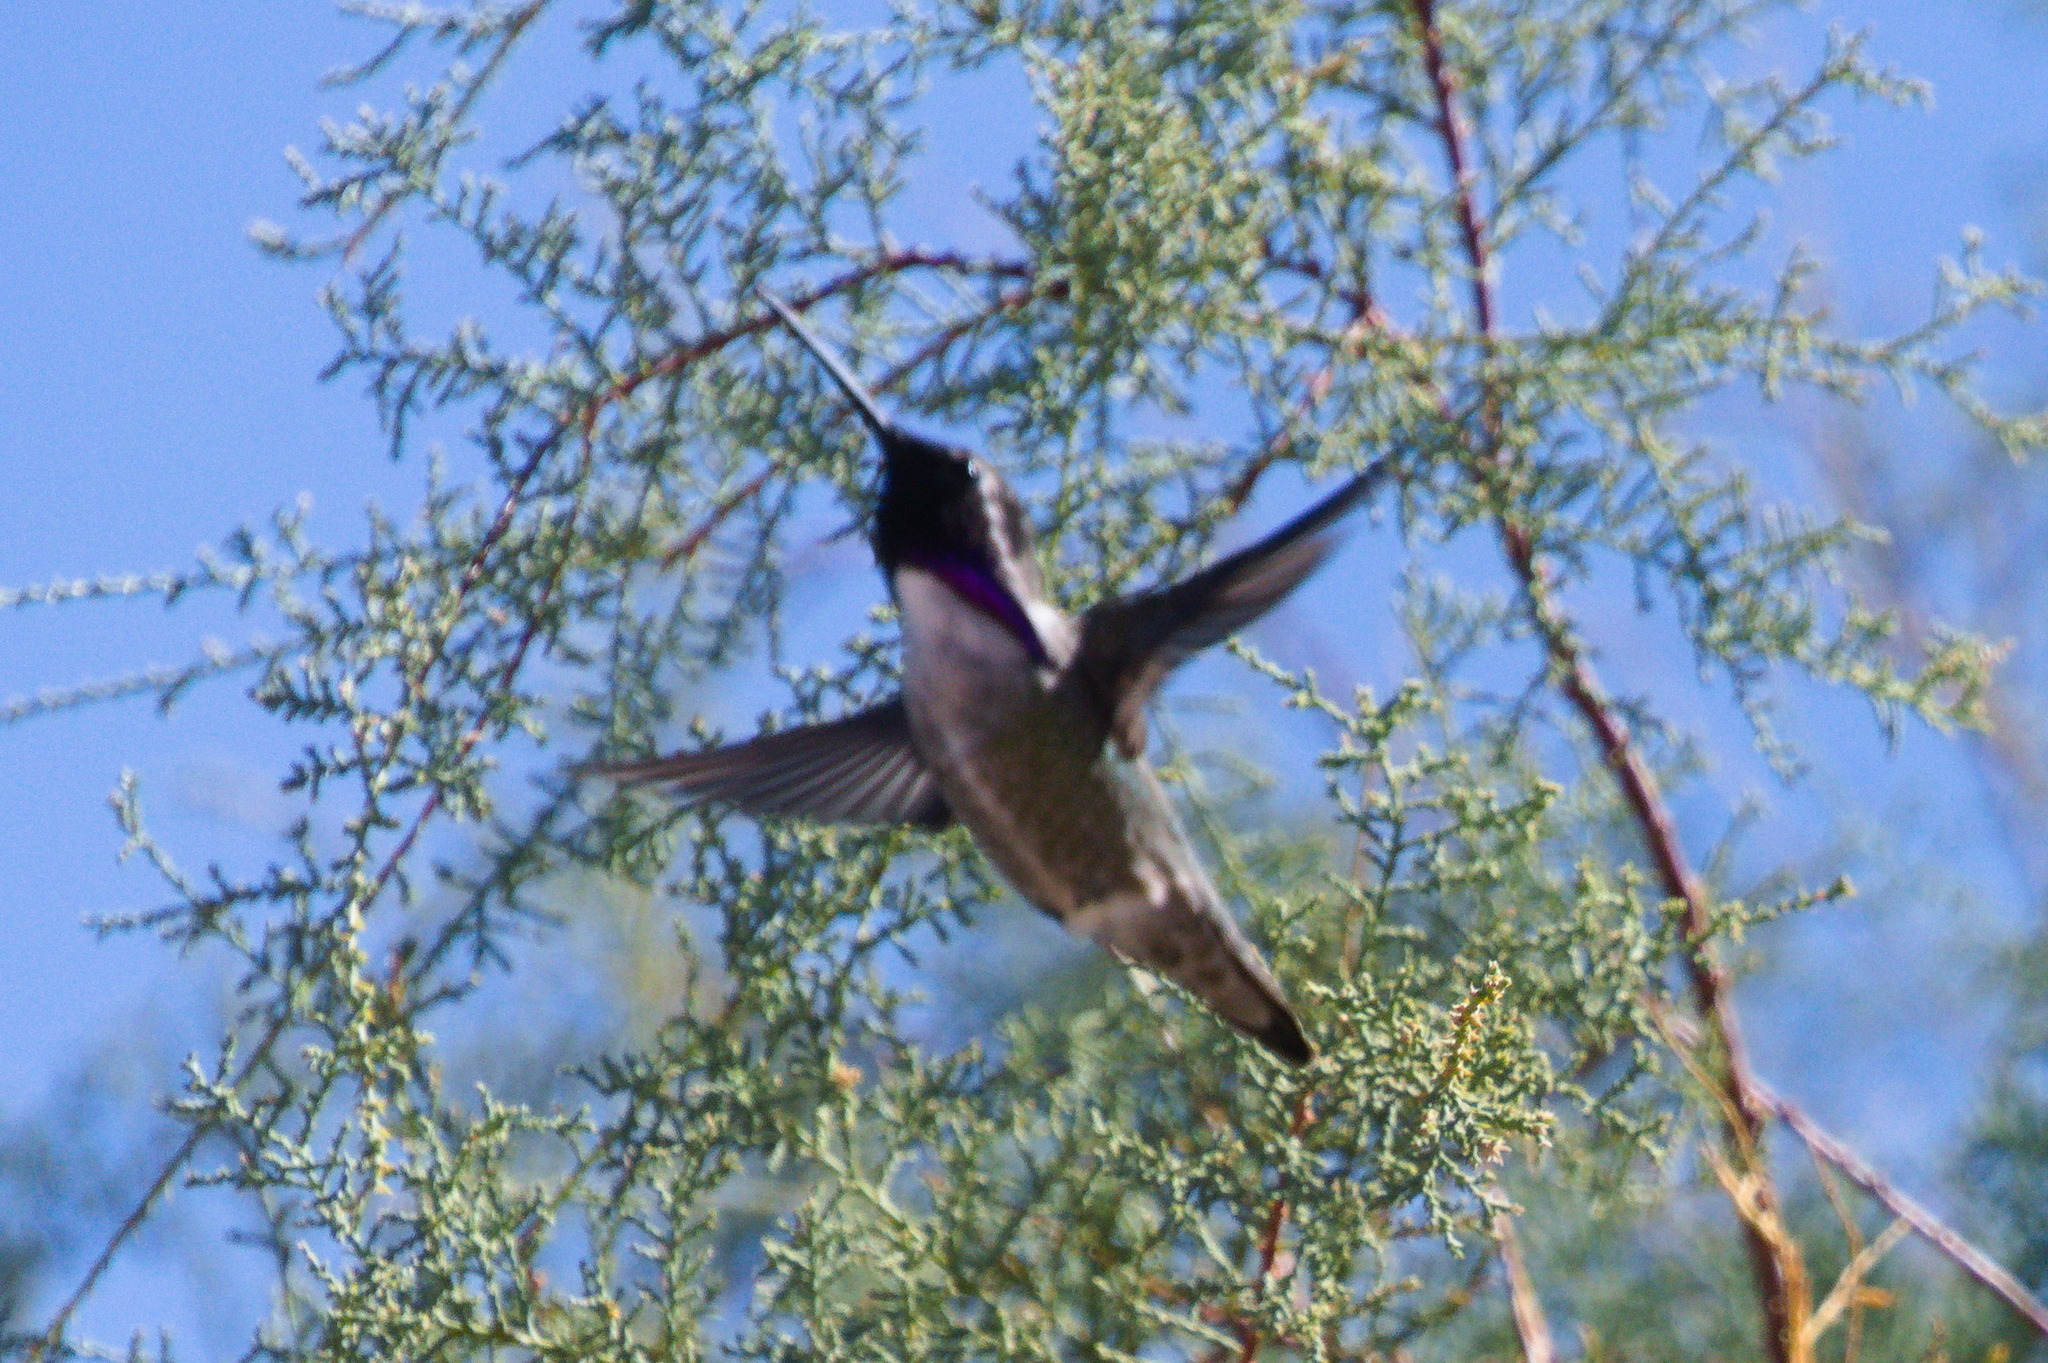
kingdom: Animalia
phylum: Chordata
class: Aves
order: Apodiformes
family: Trochilidae
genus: Calypte
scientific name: Calypte costae
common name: Costa's hummingbird
